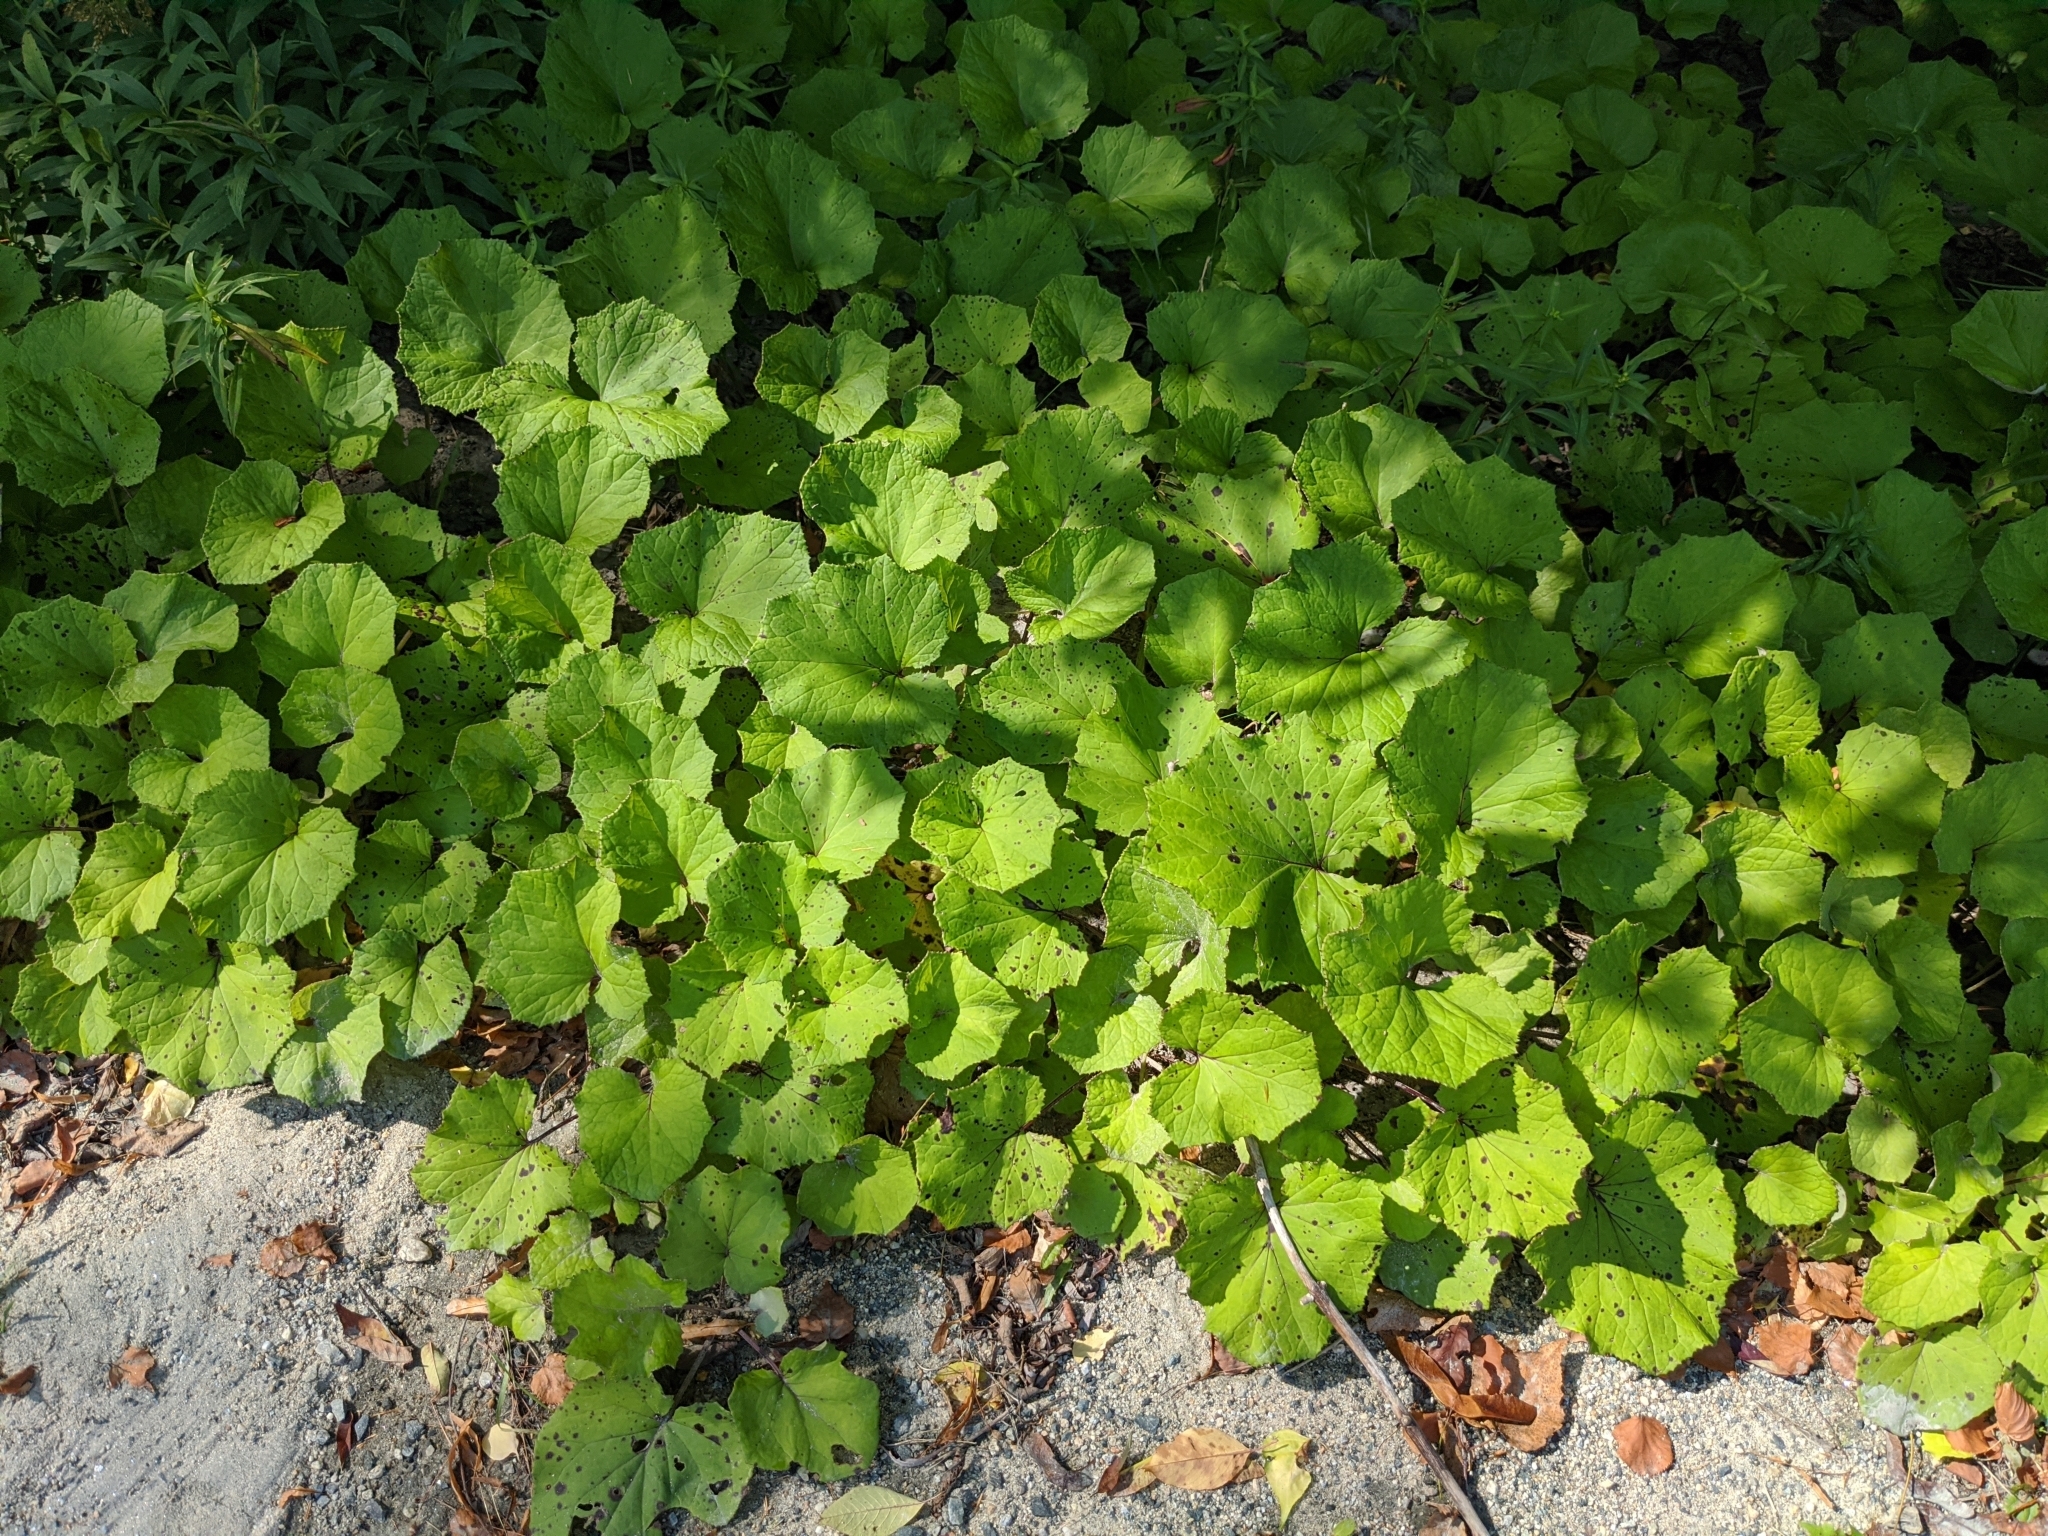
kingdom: Plantae
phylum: Tracheophyta
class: Magnoliopsida
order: Asterales
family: Asteraceae
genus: Tussilago
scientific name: Tussilago farfara
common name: Coltsfoot
